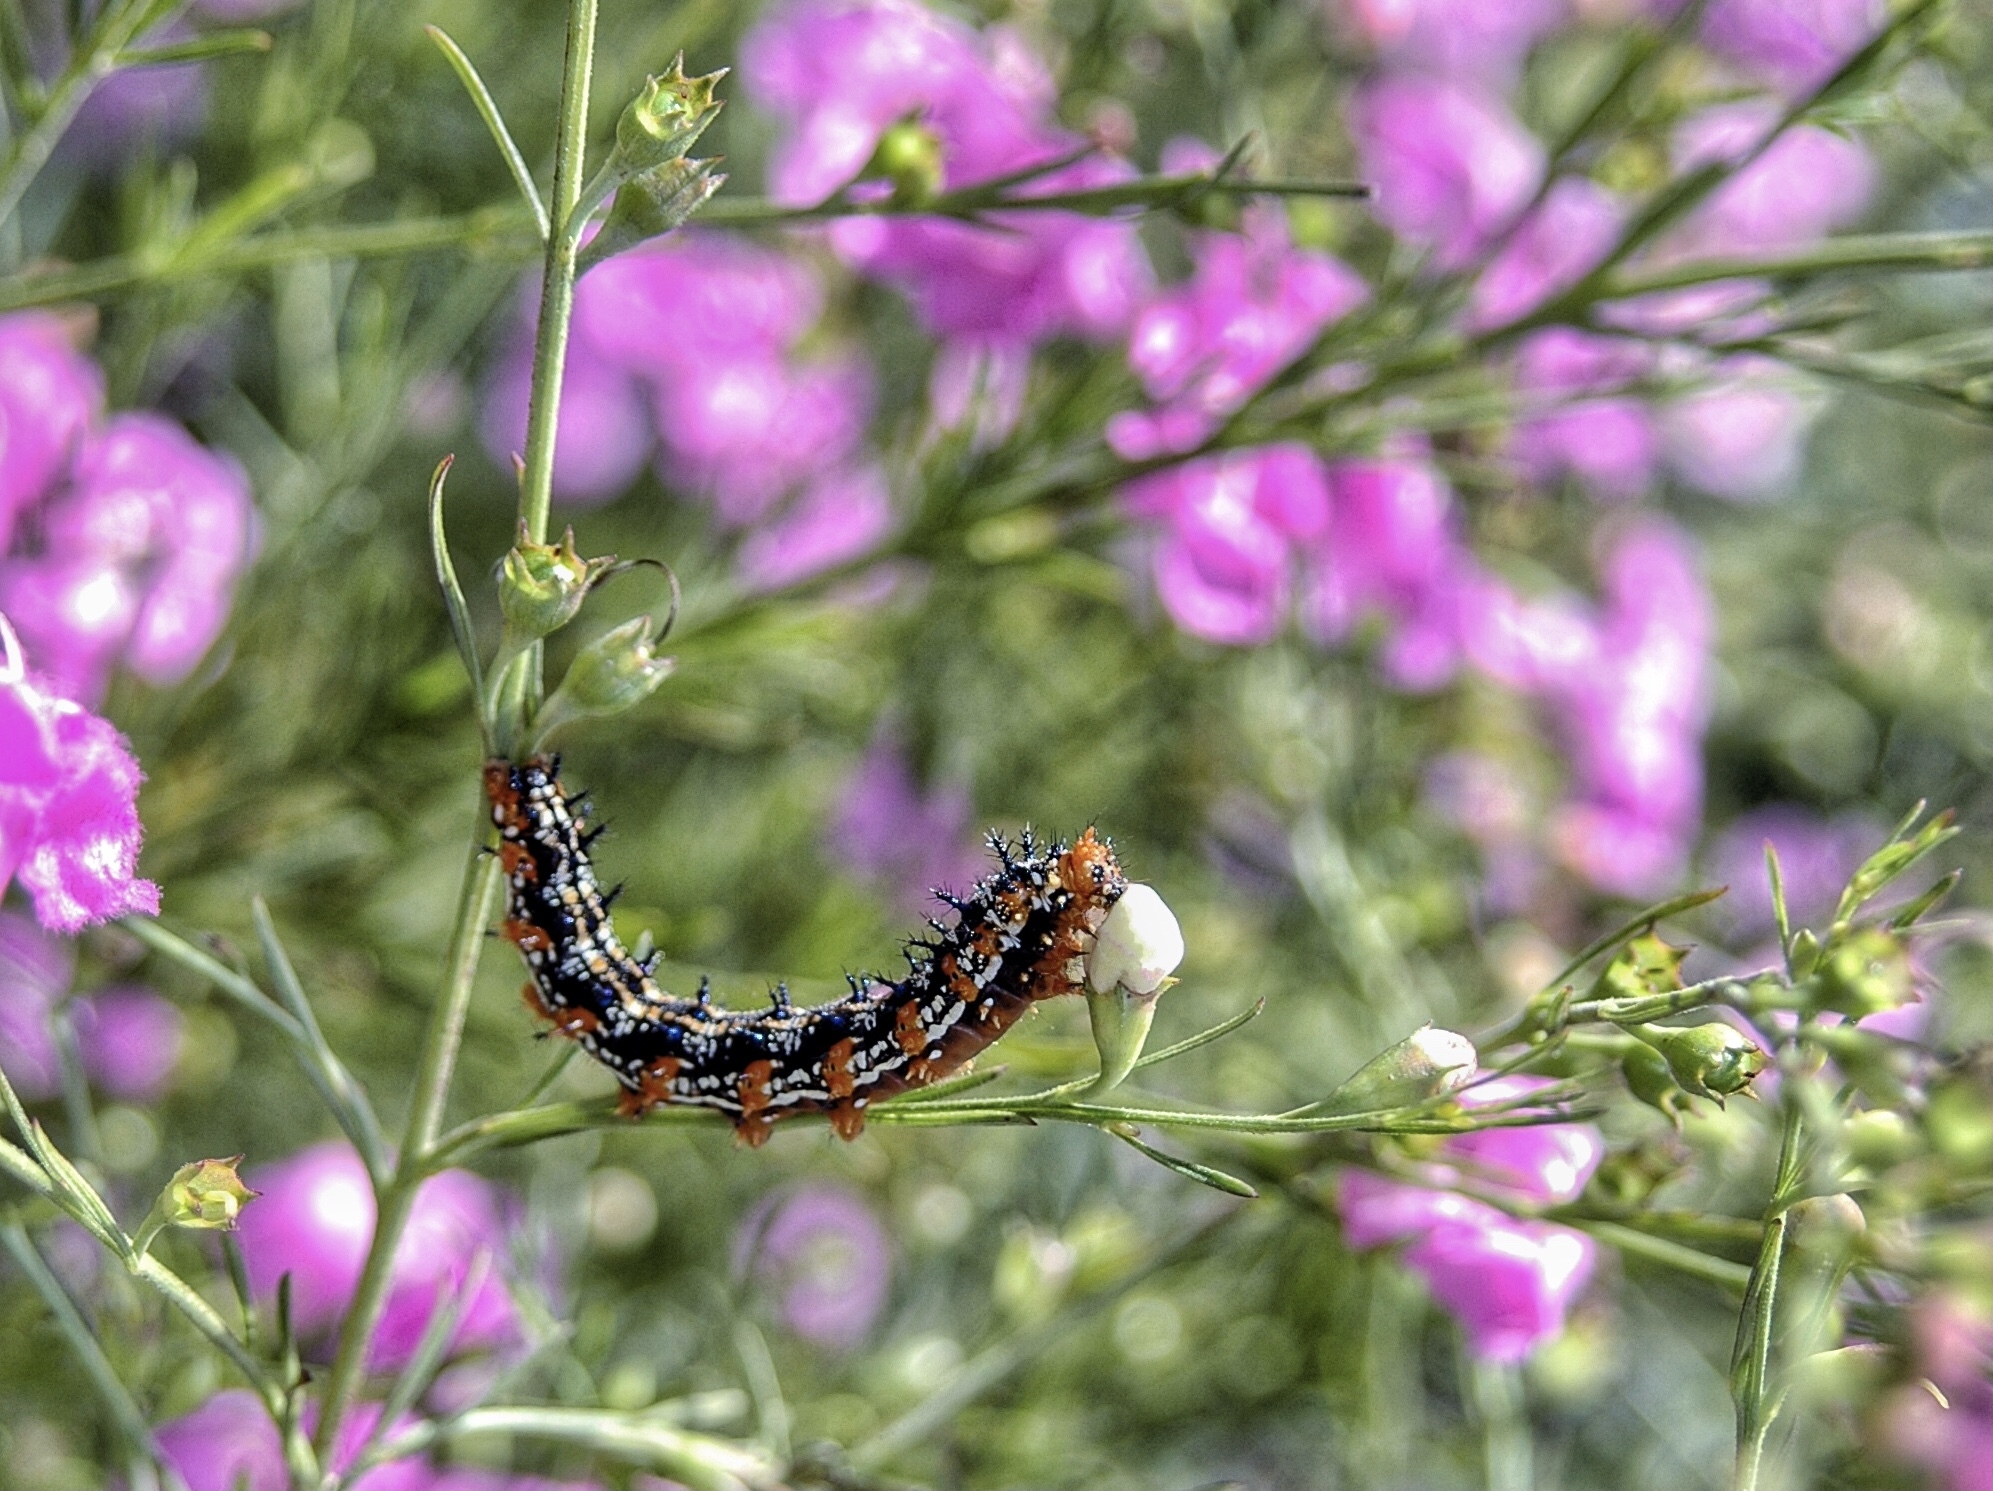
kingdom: Animalia
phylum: Arthropoda
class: Insecta
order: Lepidoptera
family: Nymphalidae
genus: Junonia
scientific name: Junonia coenia
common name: Common buckeye
